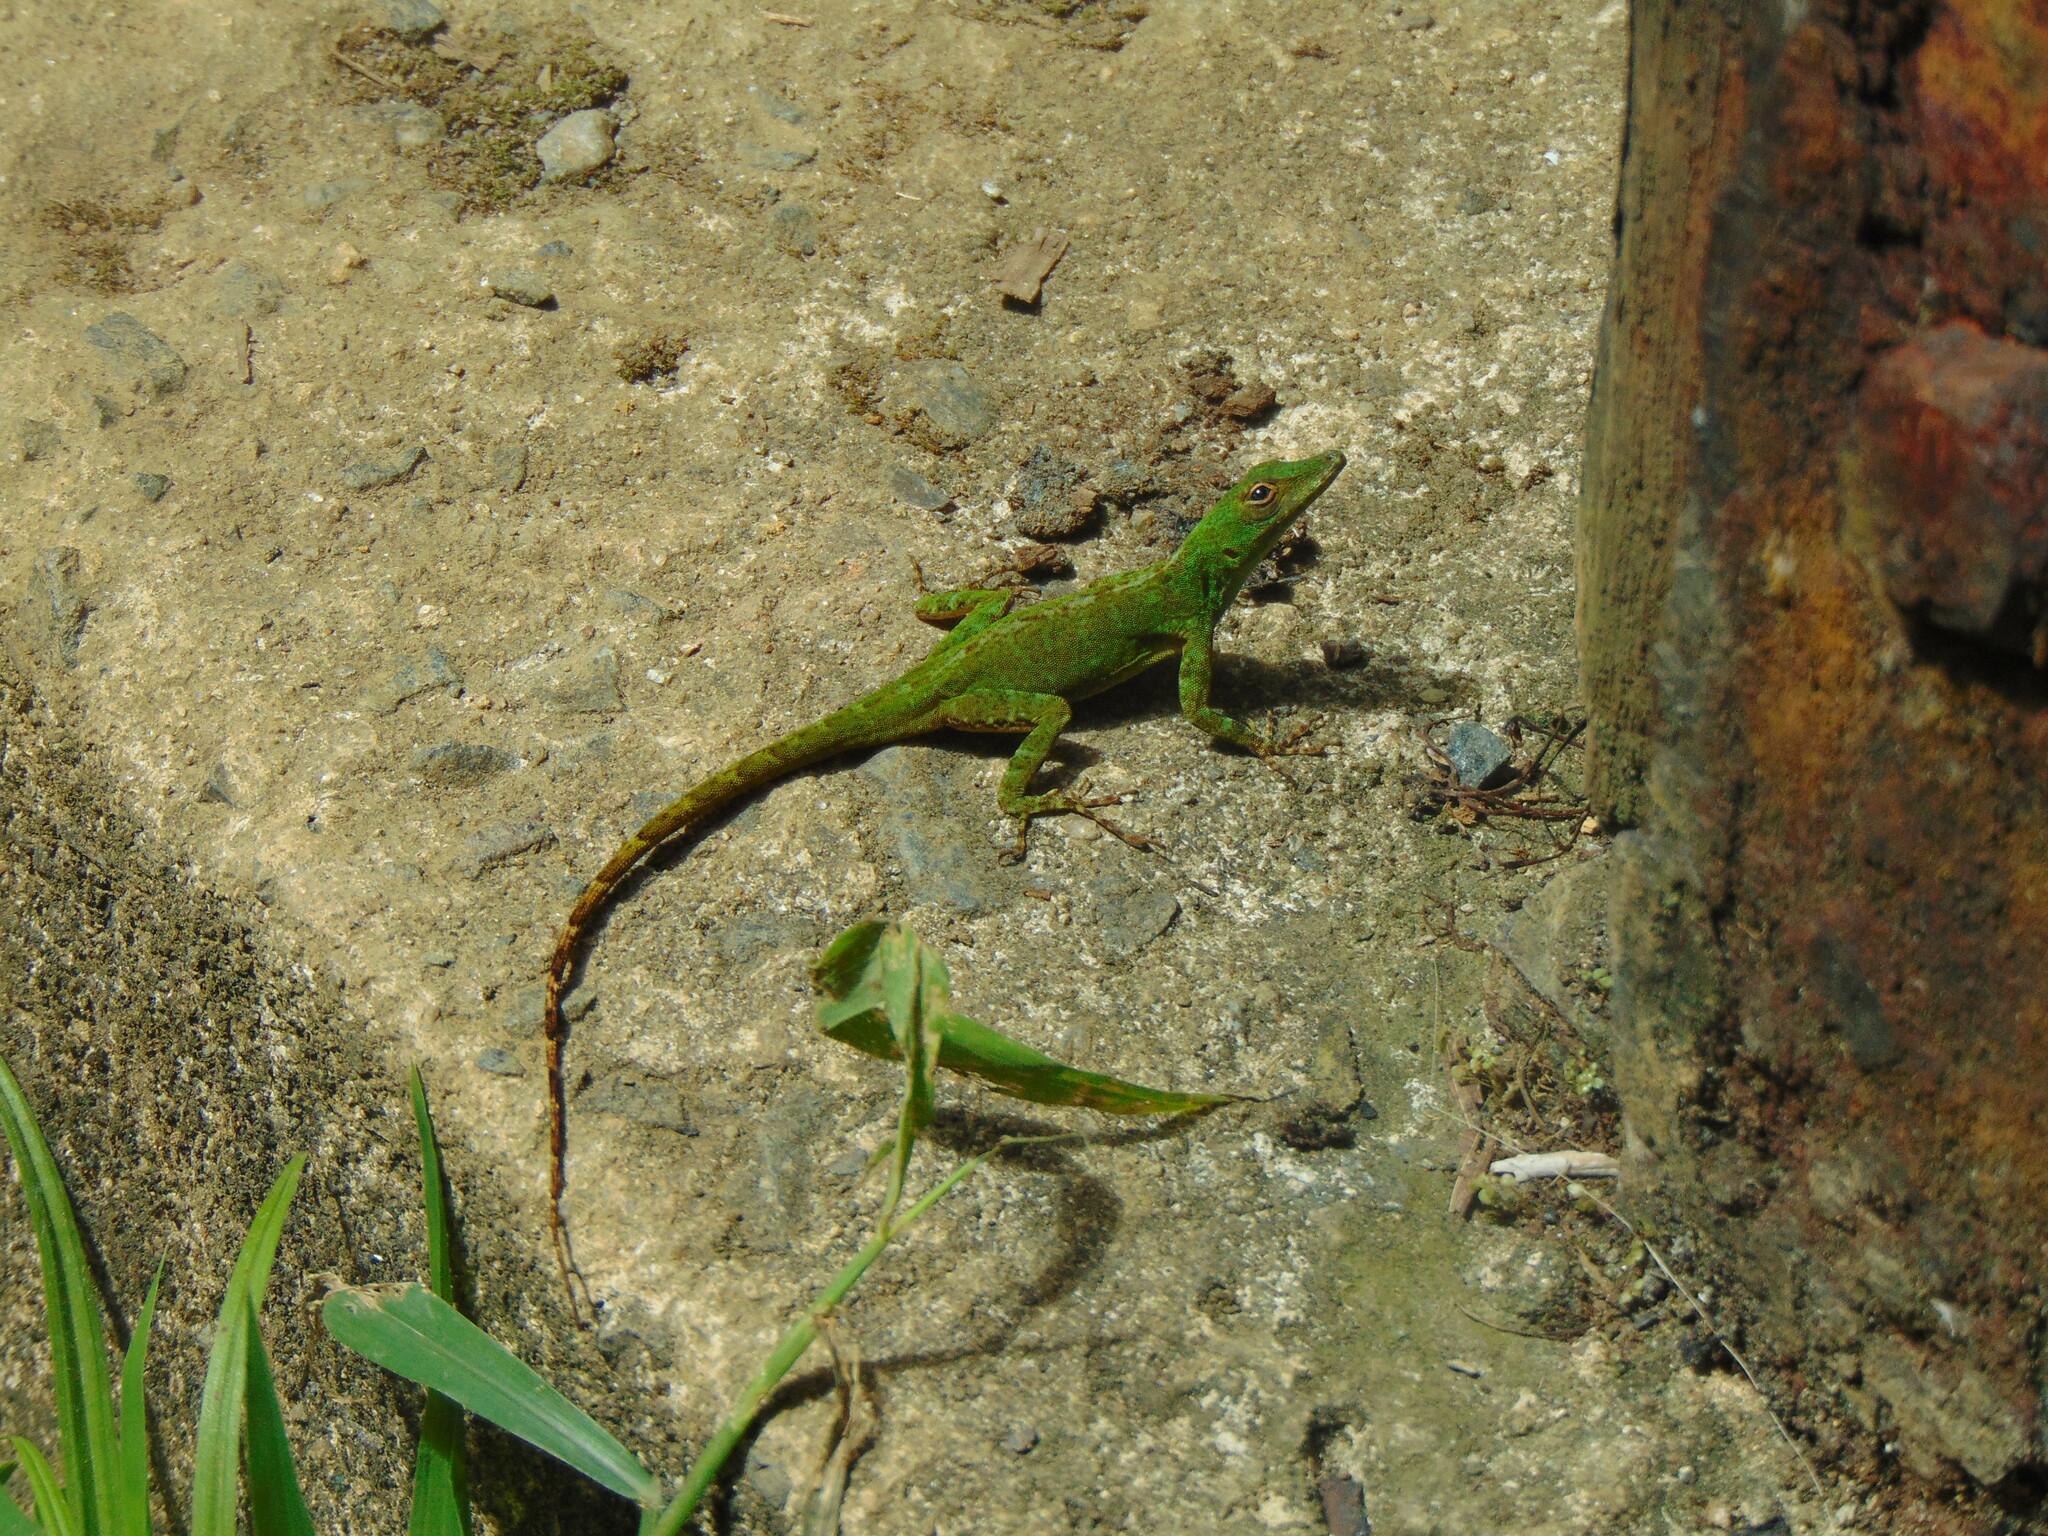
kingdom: Animalia
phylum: Chordata
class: Squamata
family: Dactyloidae
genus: Anolis
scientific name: Anolis evermanni
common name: Emerald anole
